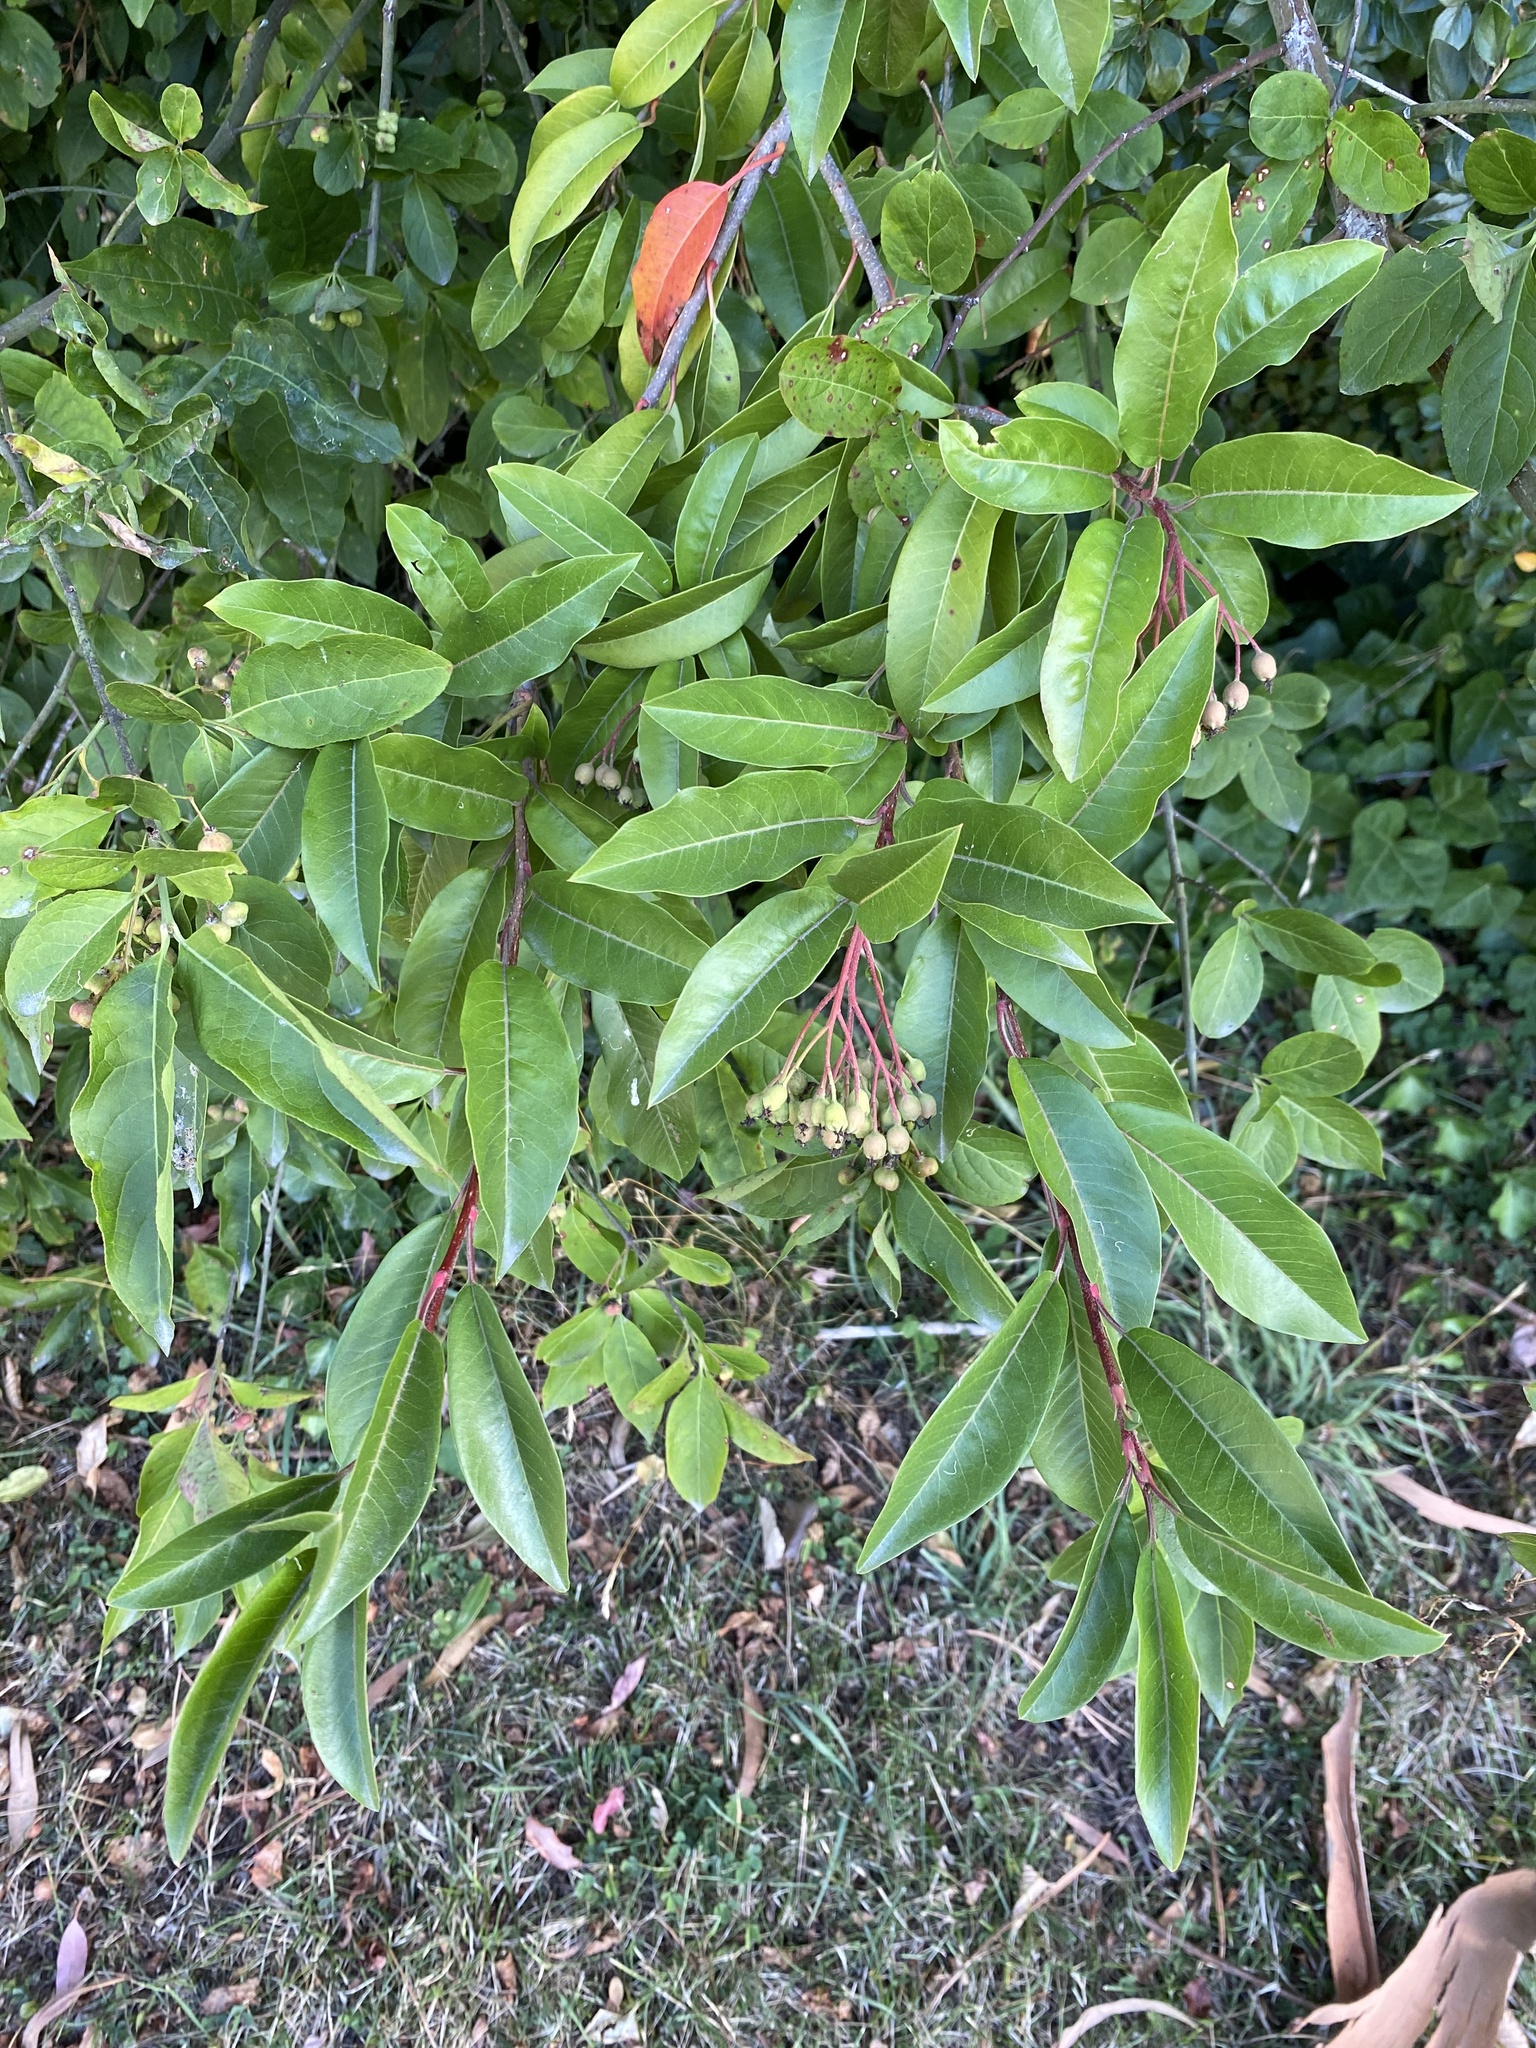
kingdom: Plantae
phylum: Tracheophyta
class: Magnoliopsida
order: Rosales
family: Rosaceae
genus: Stranvaesia
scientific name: Stranvaesia davidiana
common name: Chinese photinia
